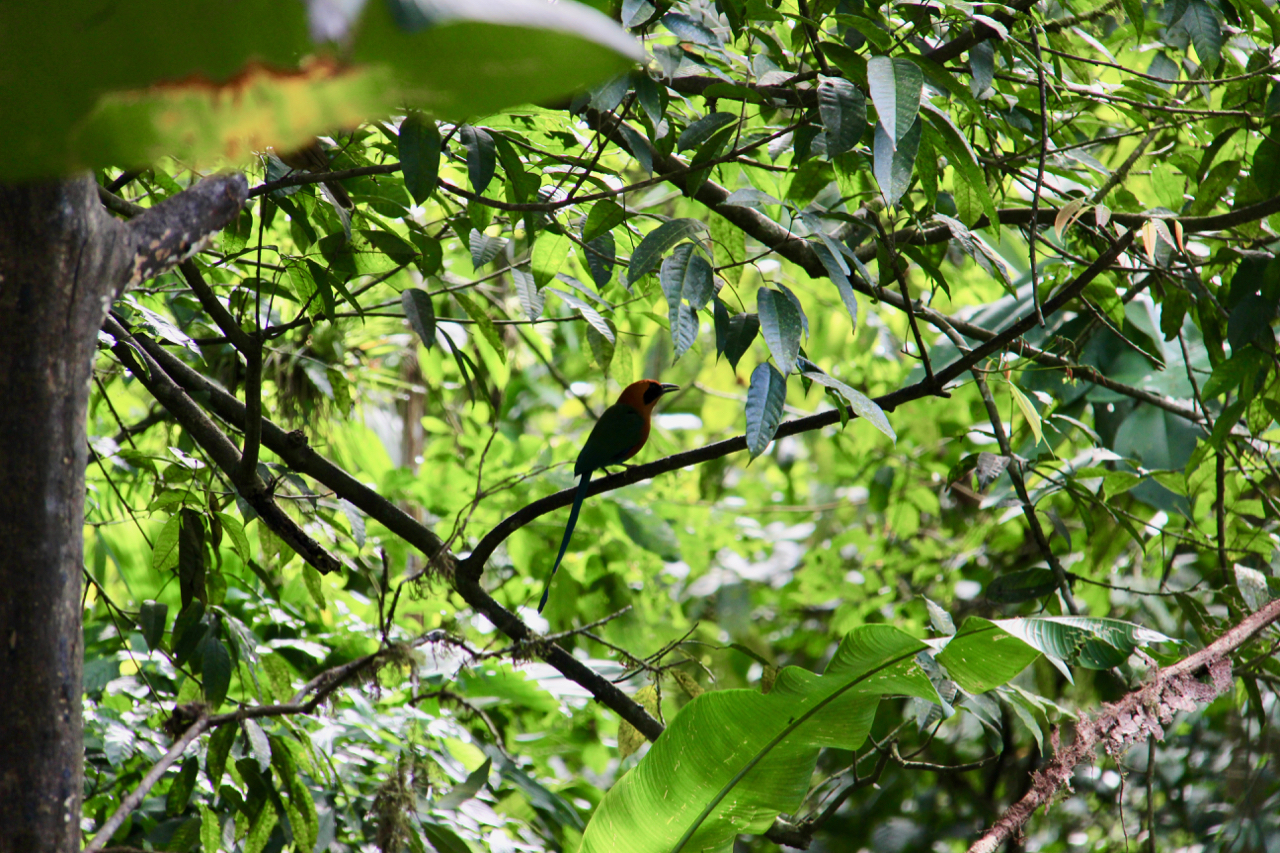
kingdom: Animalia
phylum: Chordata
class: Aves
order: Coraciiformes
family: Momotidae
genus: Baryphthengus
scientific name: Baryphthengus martii
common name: Rufous motmot
